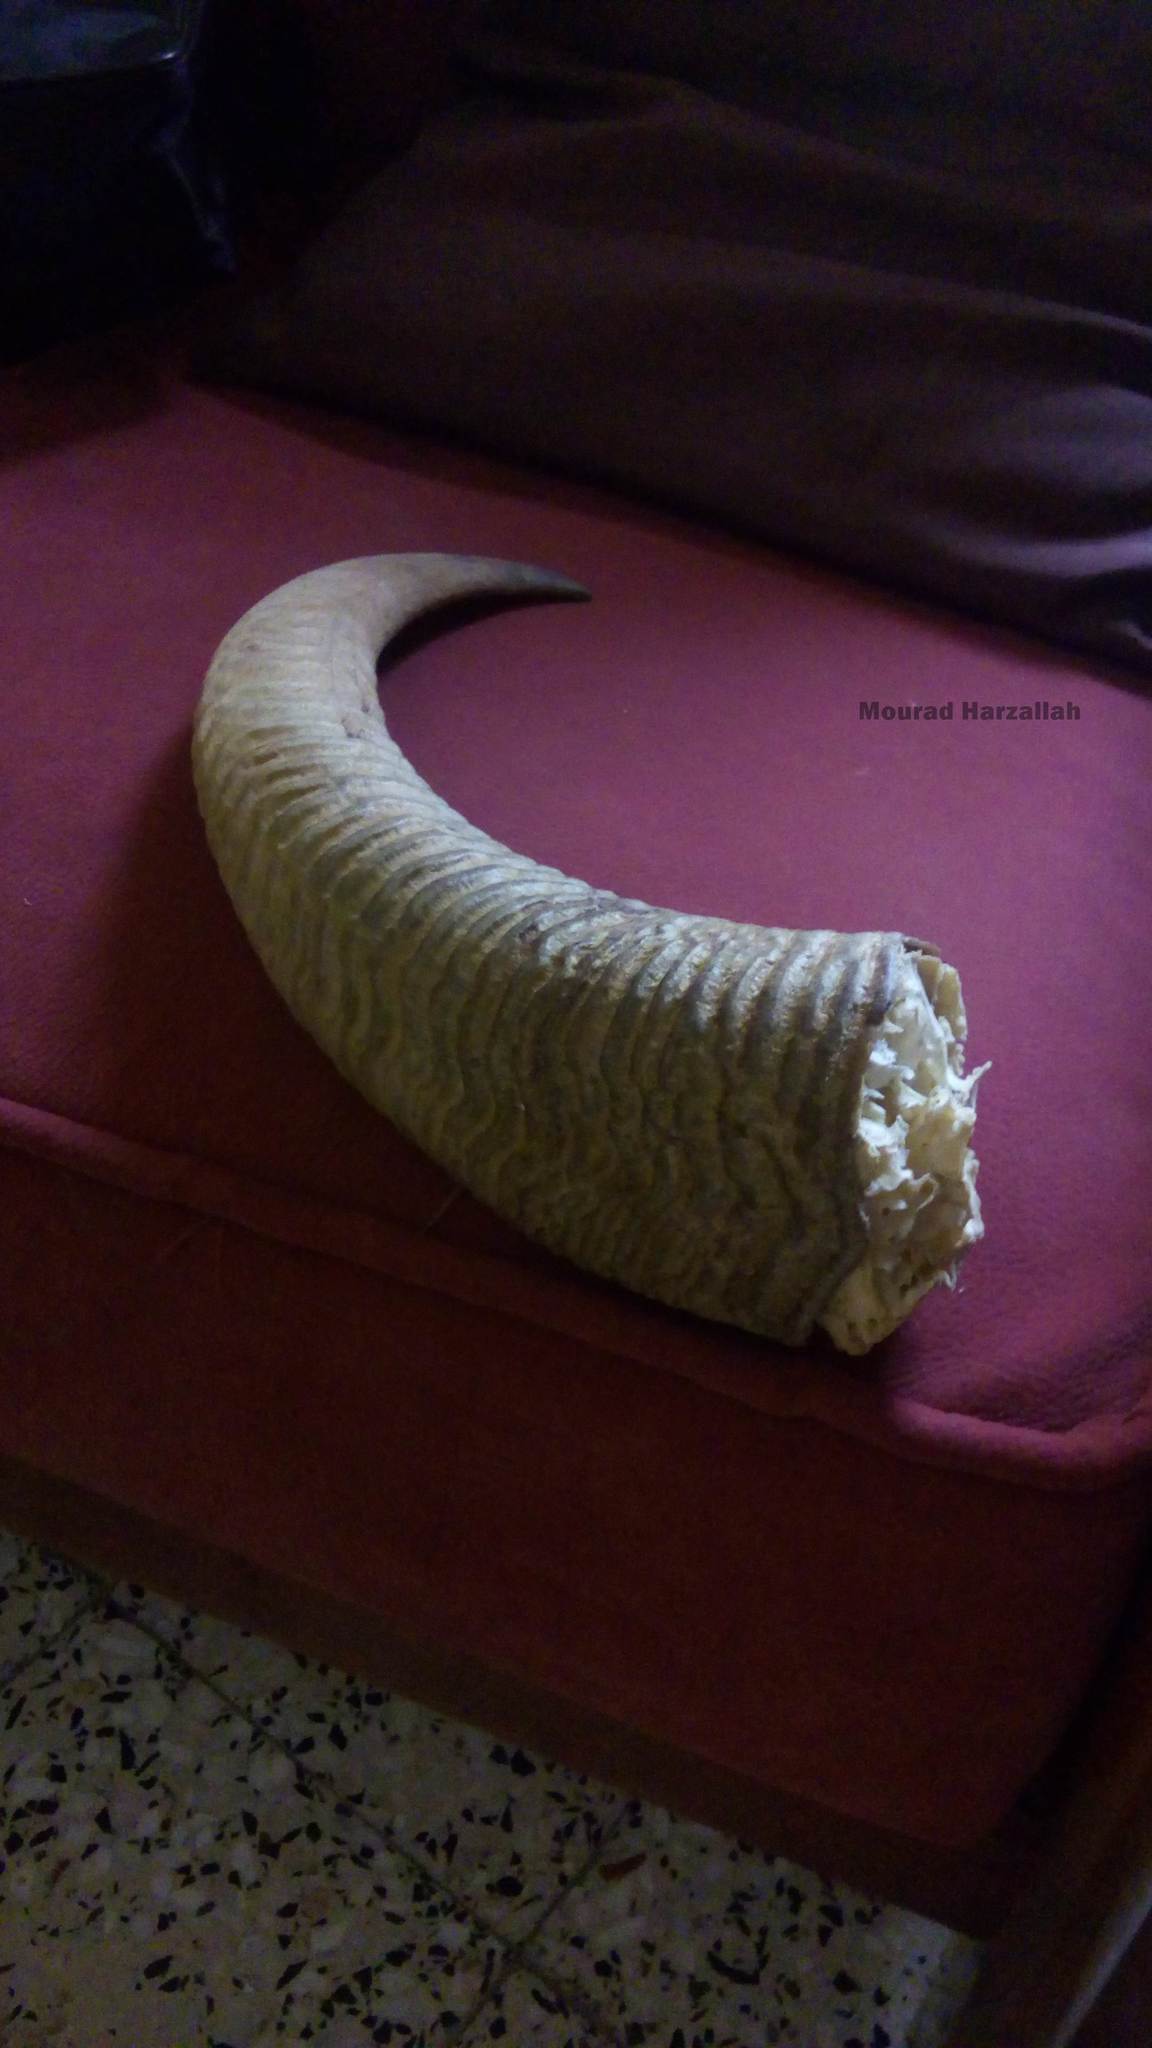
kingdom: Animalia
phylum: Chordata
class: Mammalia
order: Artiodactyla
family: Bovidae
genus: Ammotragus
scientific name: Ammotragus lervia
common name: Barbary sheep
